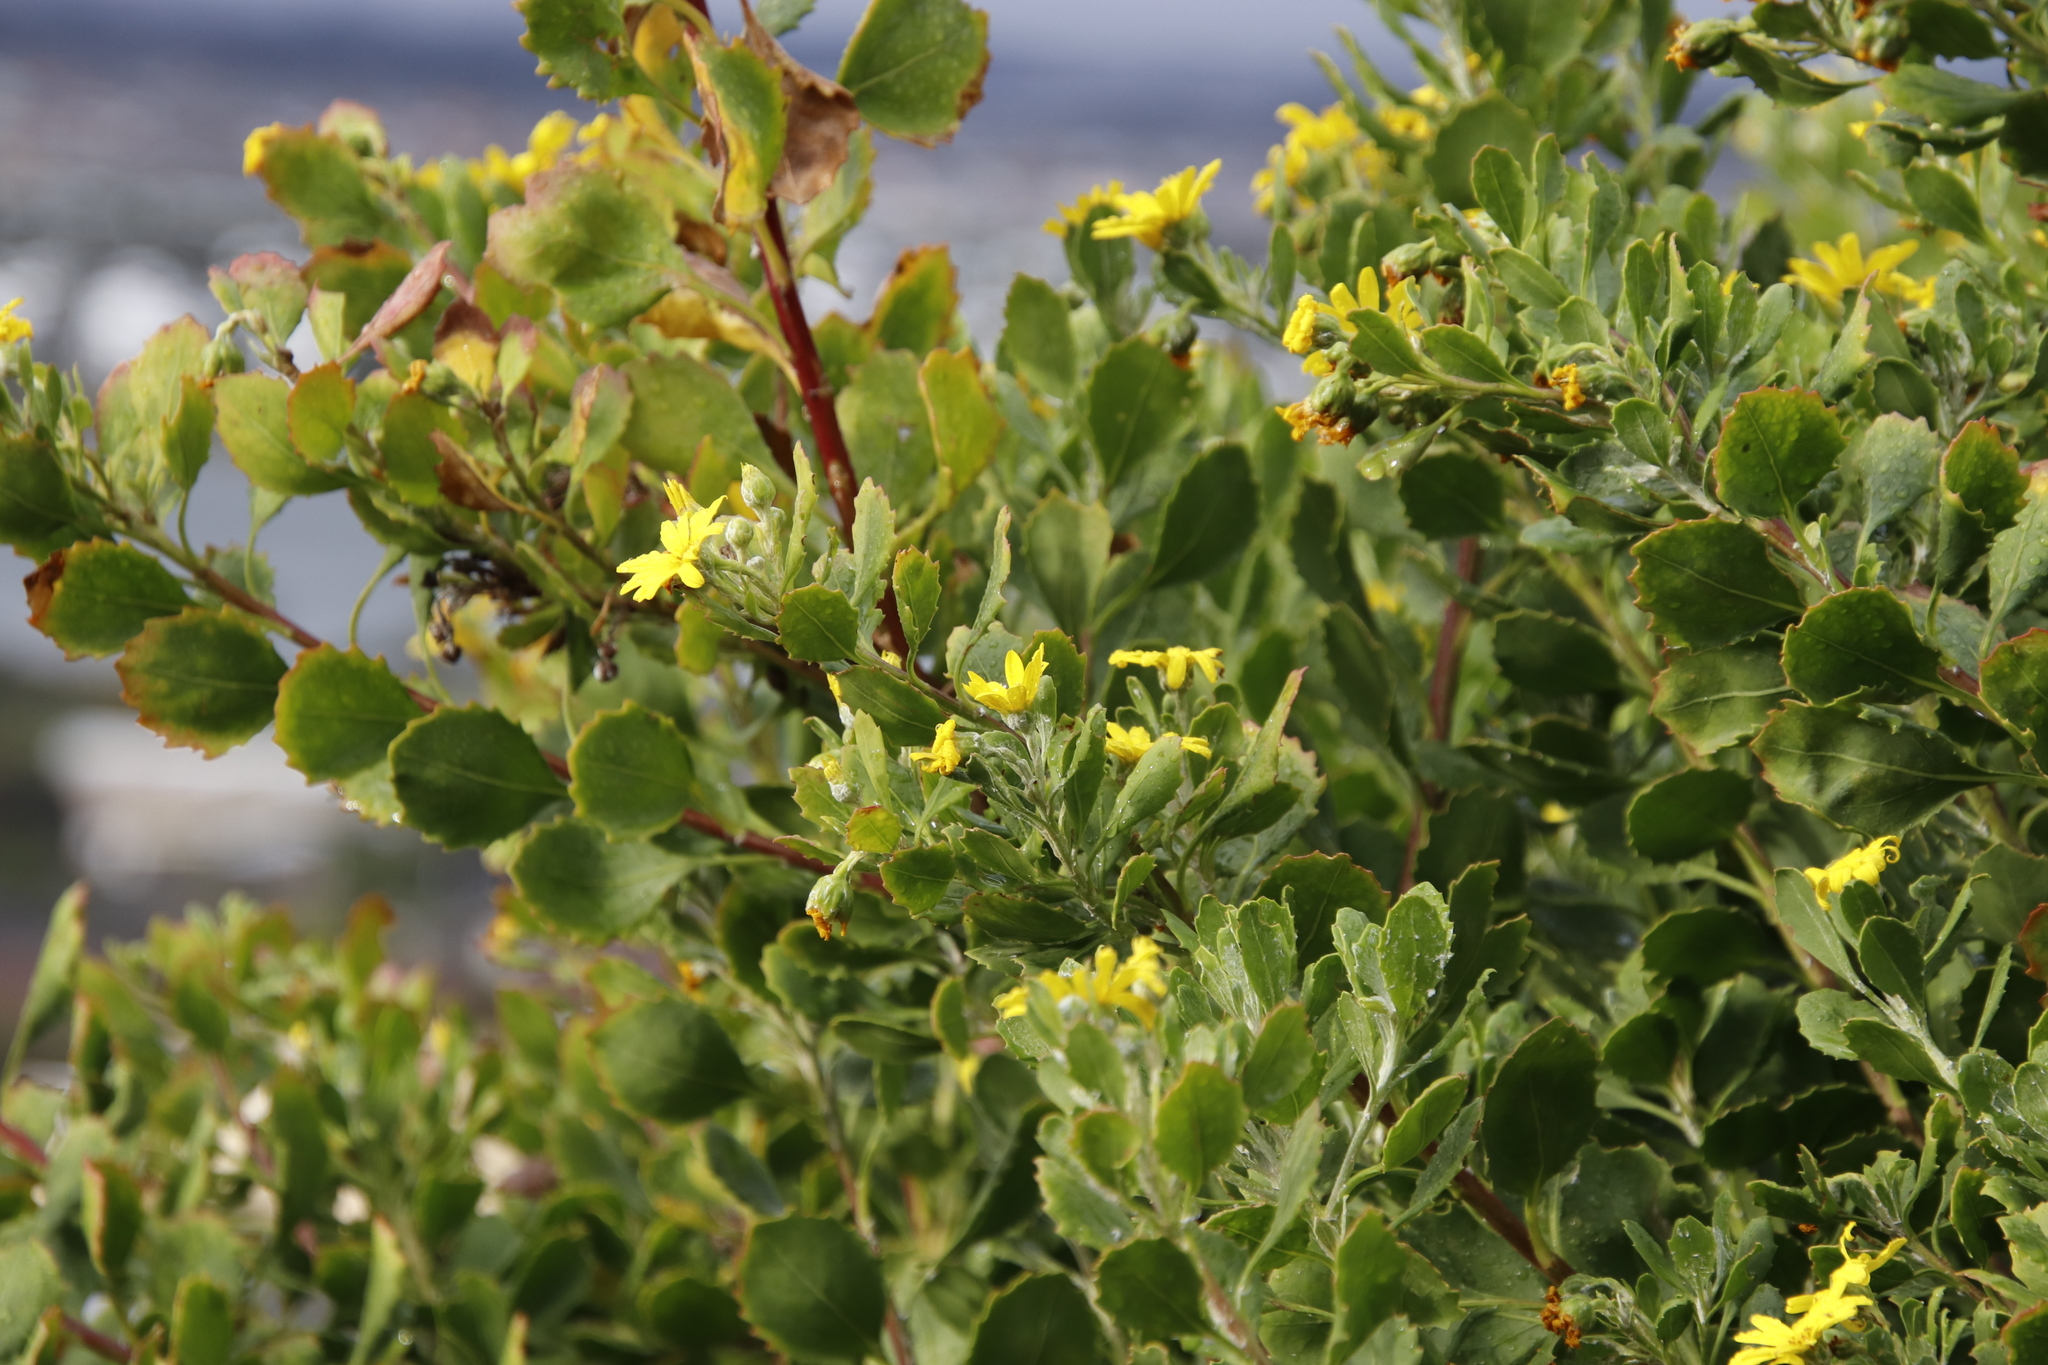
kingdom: Plantae
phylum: Tracheophyta
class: Magnoliopsida
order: Asterales
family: Asteraceae
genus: Osteospermum
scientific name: Osteospermum moniliferum
